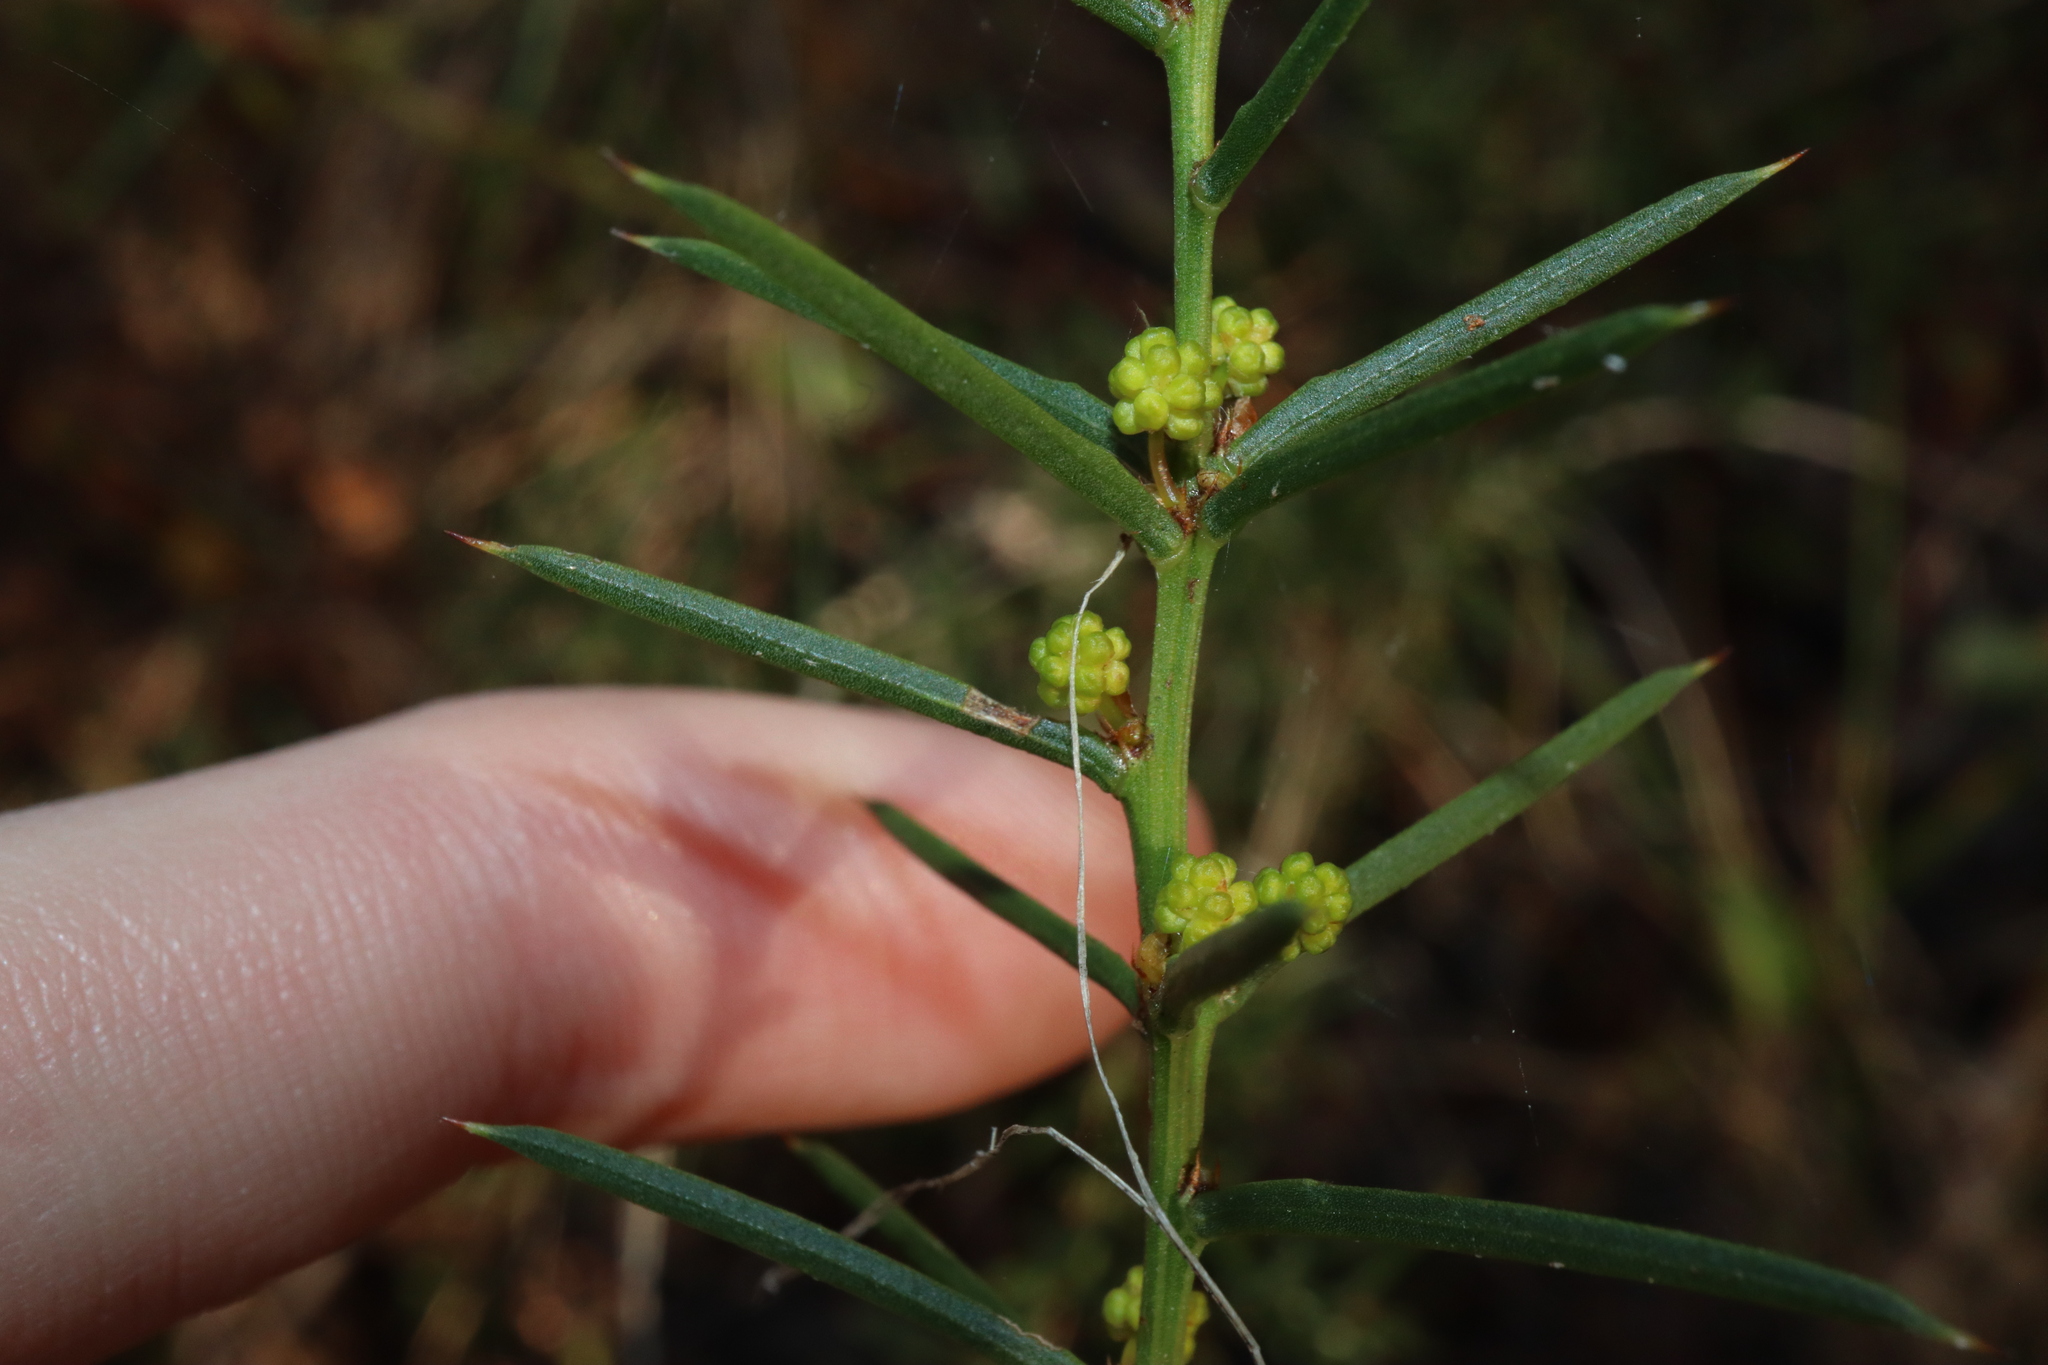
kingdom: Plantae
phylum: Tracheophyta
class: Magnoliopsida
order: Fabales
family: Fabaceae
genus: Acacia
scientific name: Acacia genistifolia
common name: Early wattle
